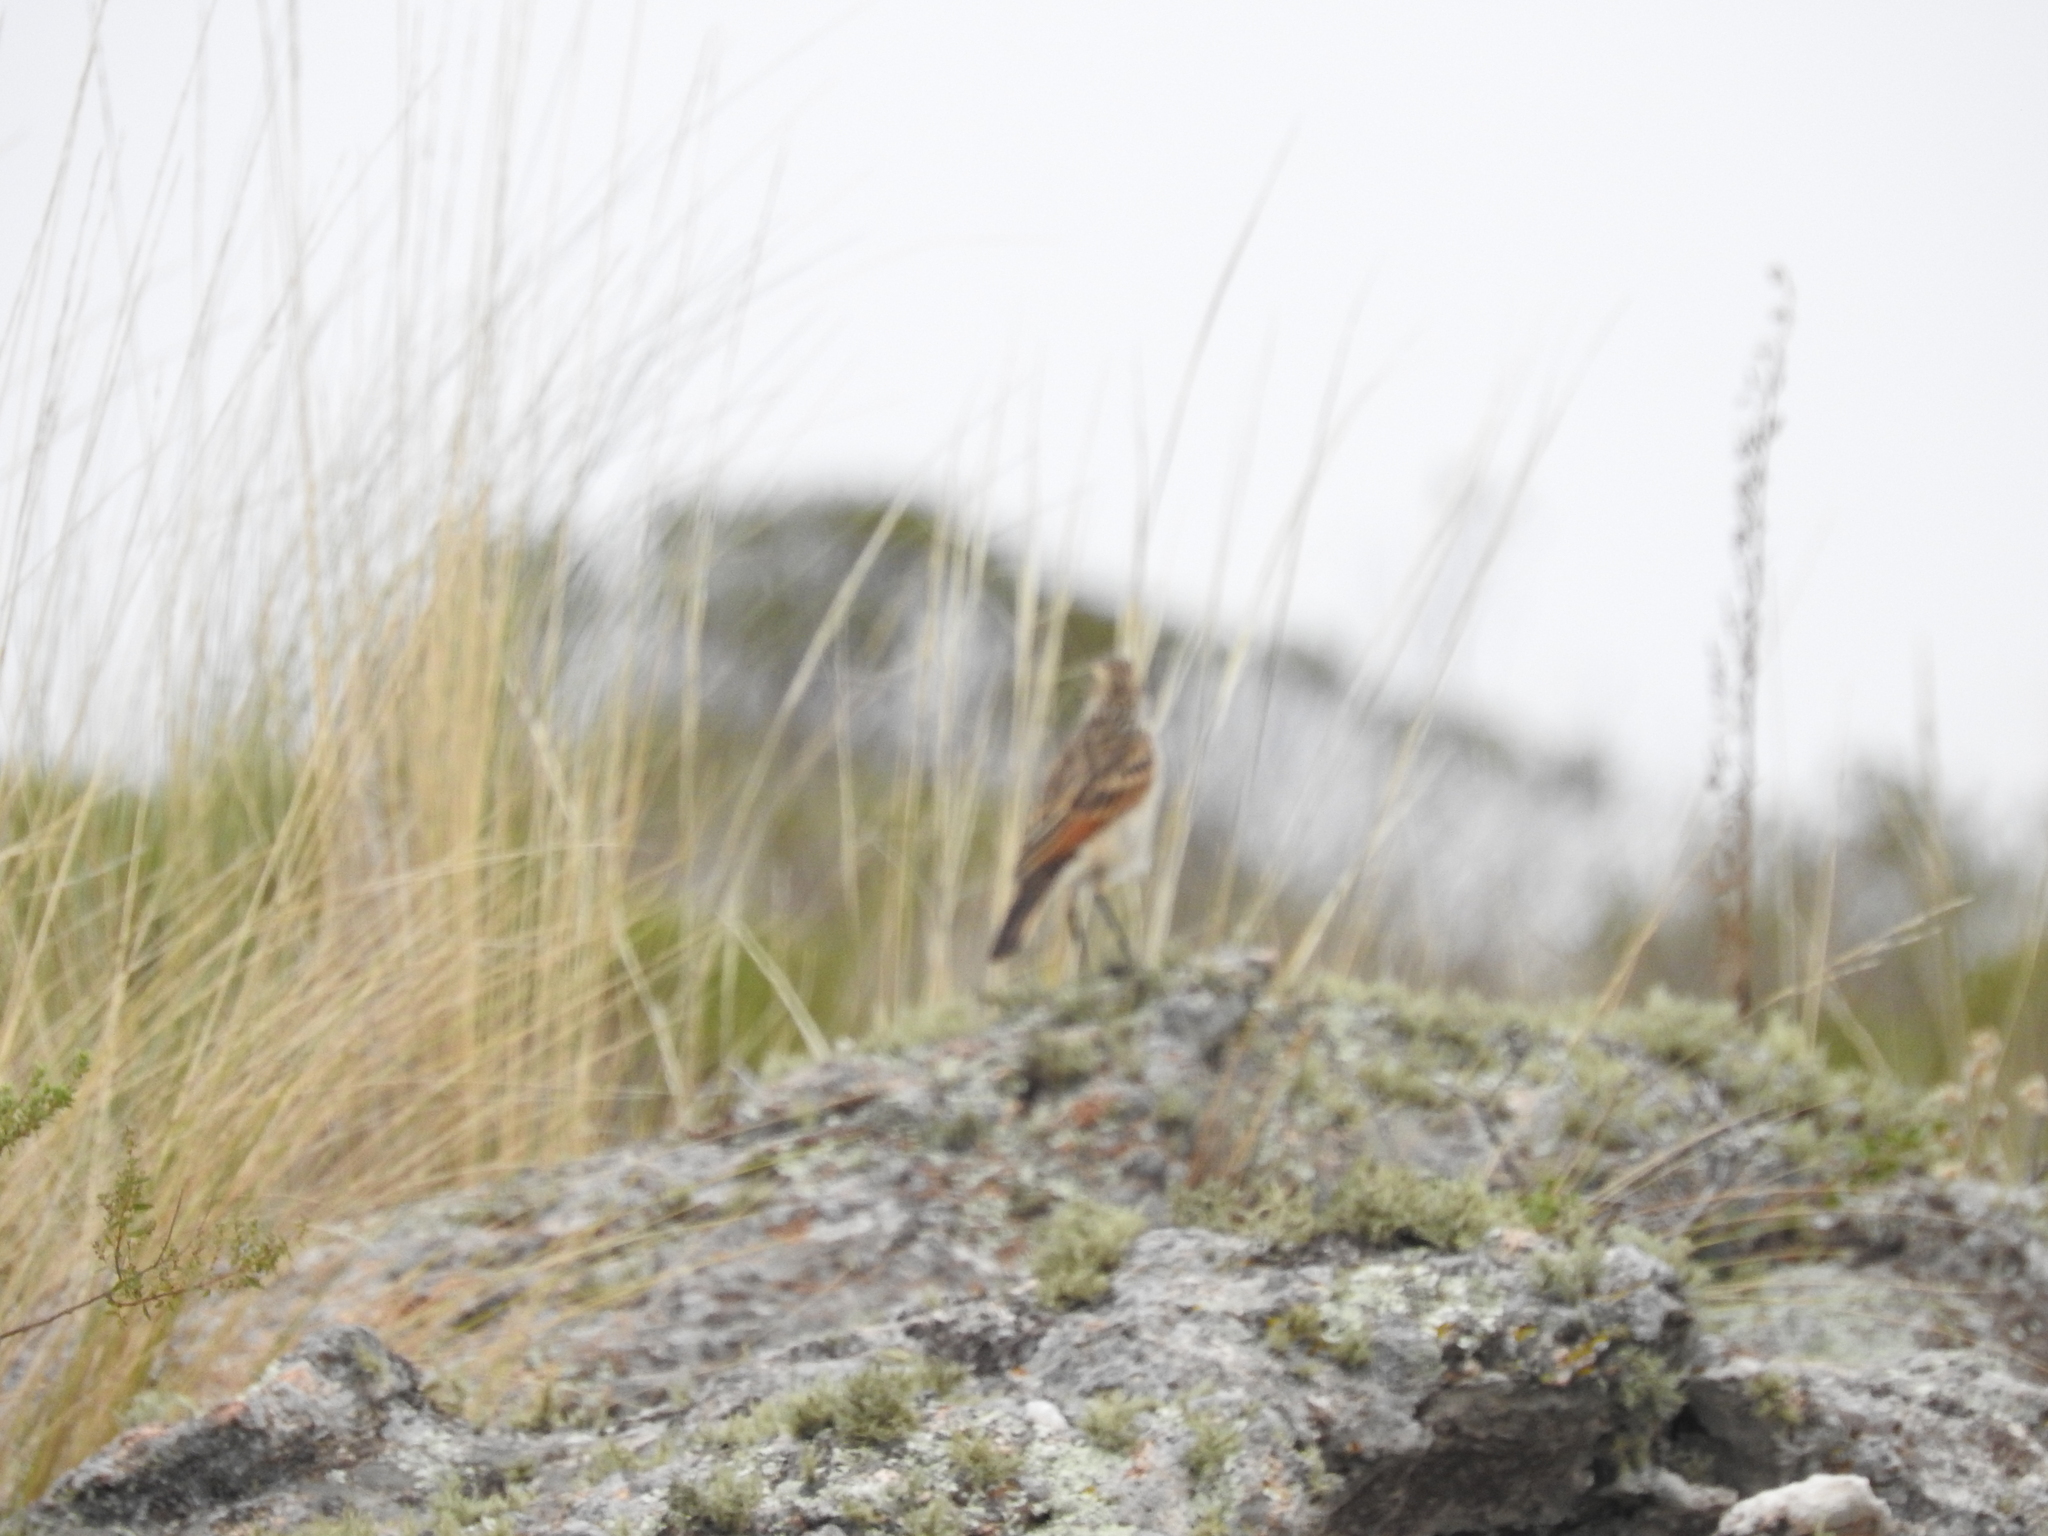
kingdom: Animalia
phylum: Chordata
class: Aves
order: Passeriformes
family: Tyrannidae
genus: Hymenops
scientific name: Hymenops perspicillatus
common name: Spectacled tyrant
